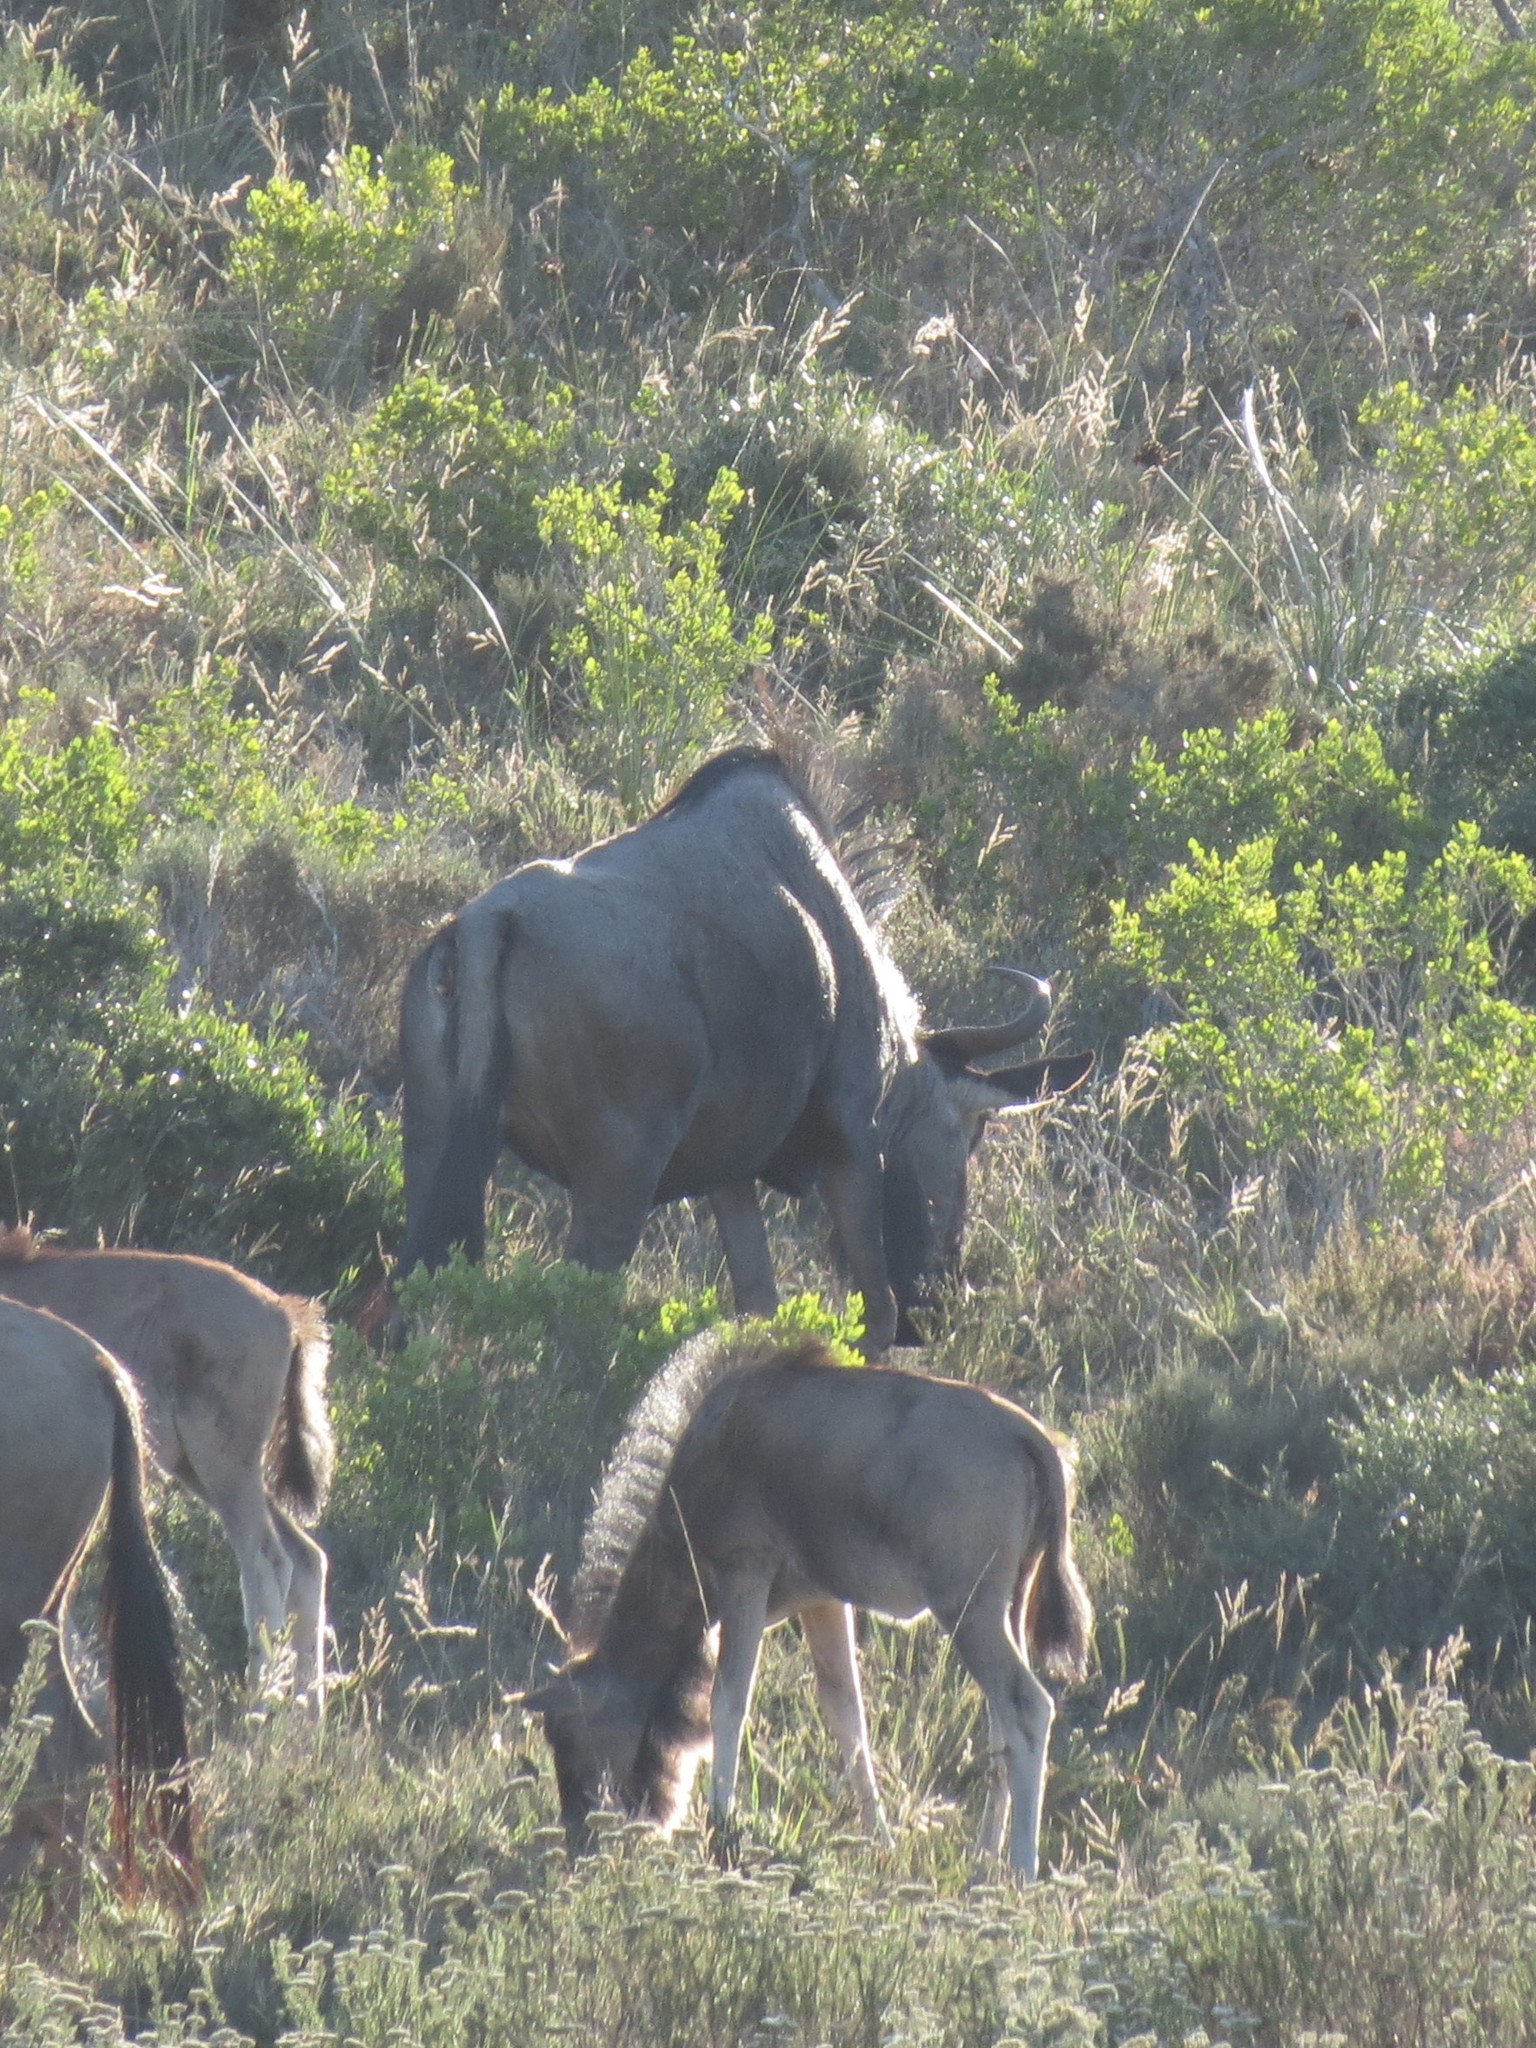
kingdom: Animalia
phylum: Chordata
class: Mammalia
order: Artiodactyla
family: Bovidae
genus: Connochaetes
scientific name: Connochaetes taurinus
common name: Blue wildebeest
